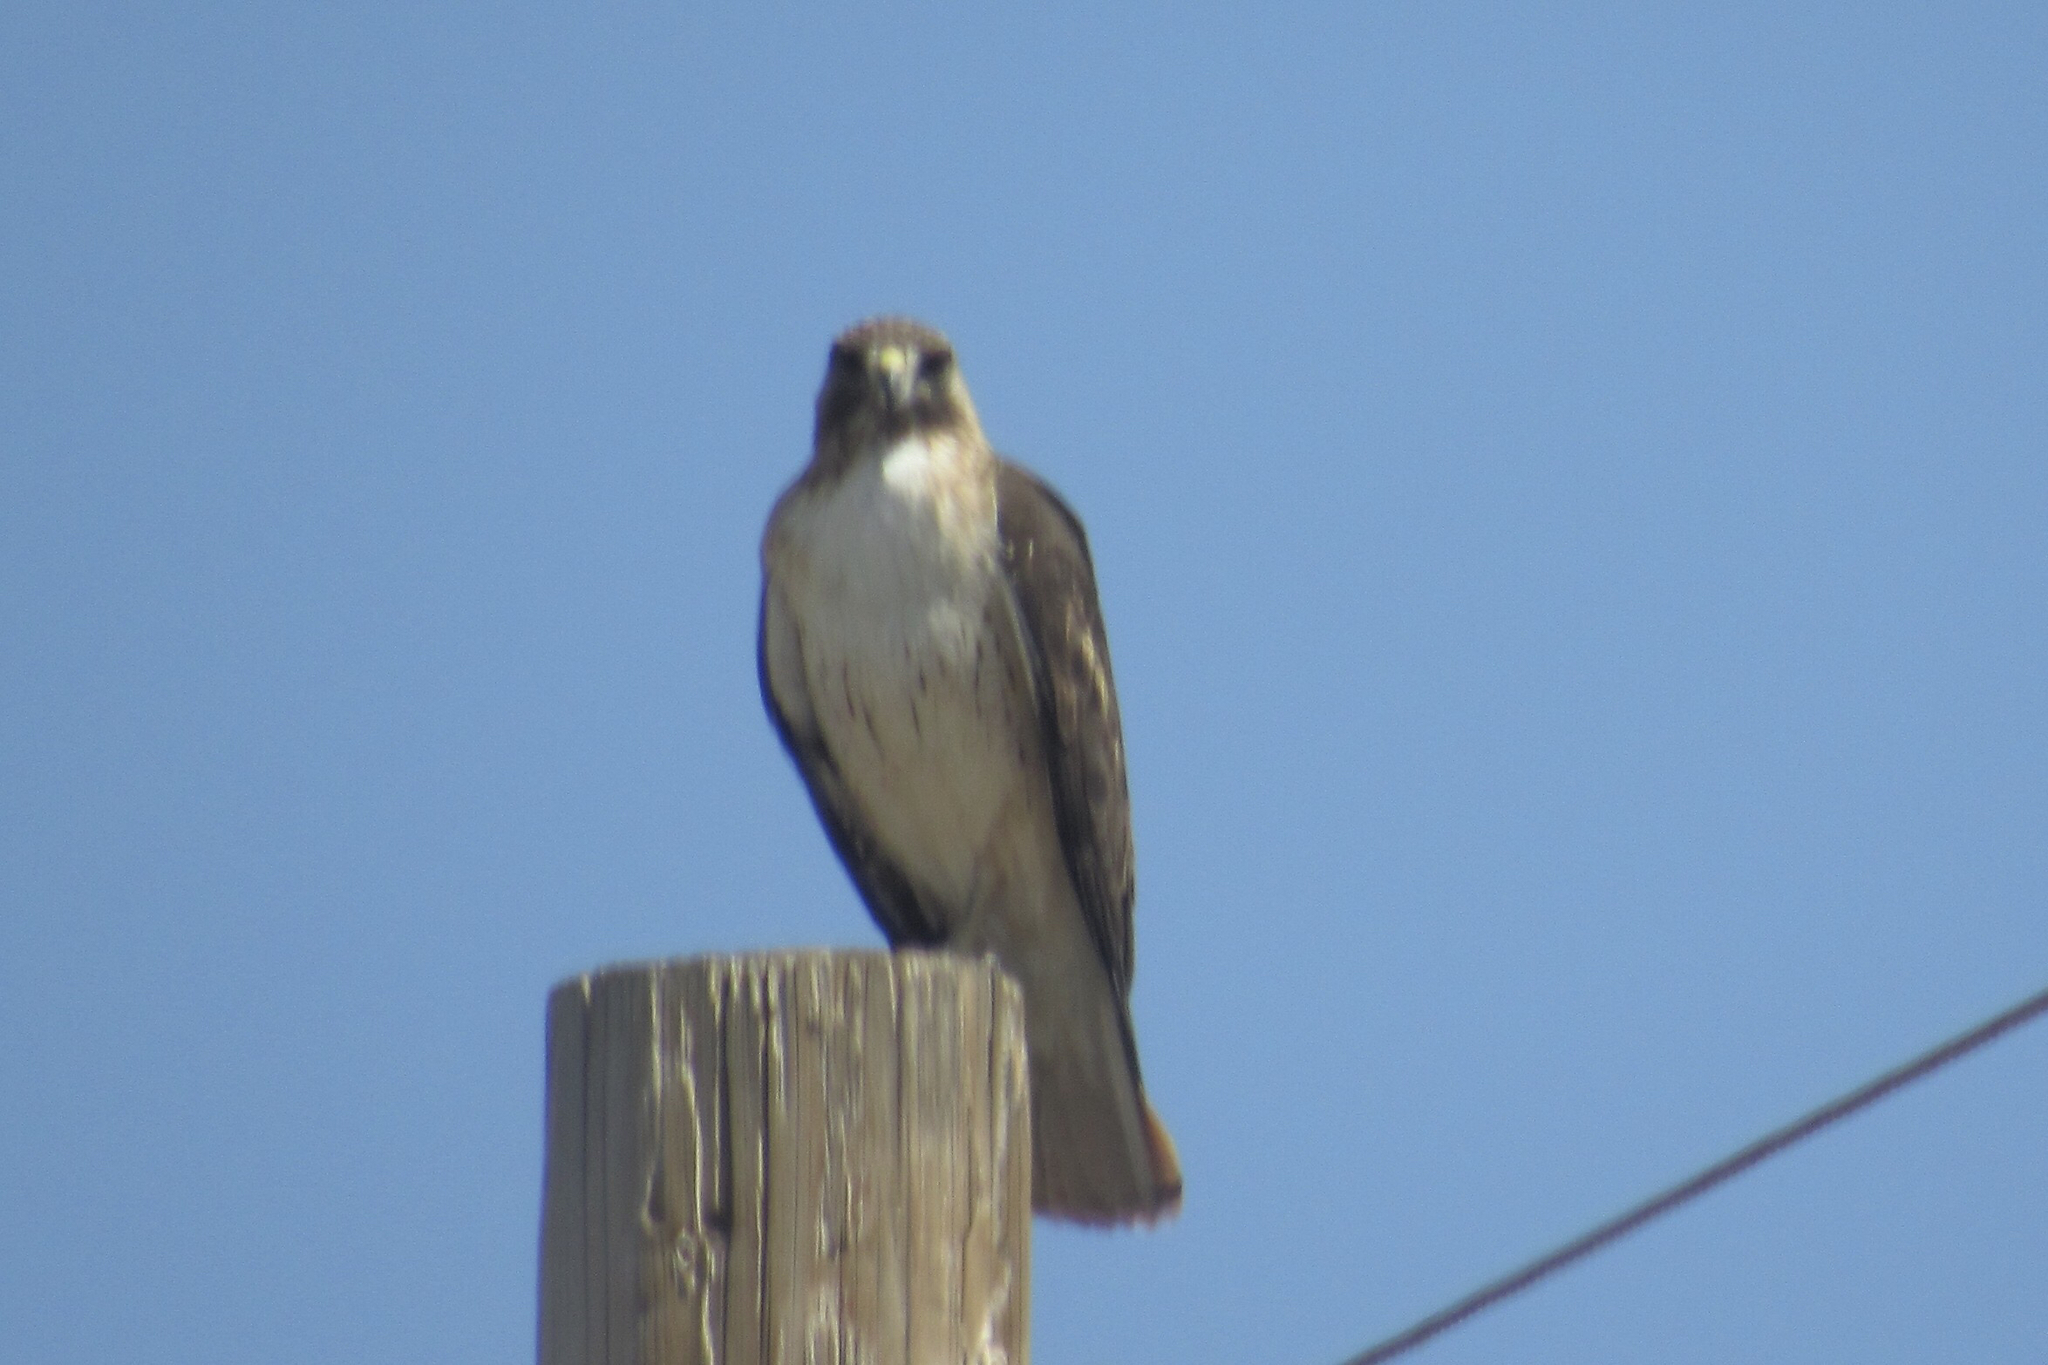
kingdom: Animalia
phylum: Chordata
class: Aves
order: Accipitriformes
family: Accipitridae
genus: Buteo
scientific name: Buteo jamaicensis
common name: Red-tailed hawk
